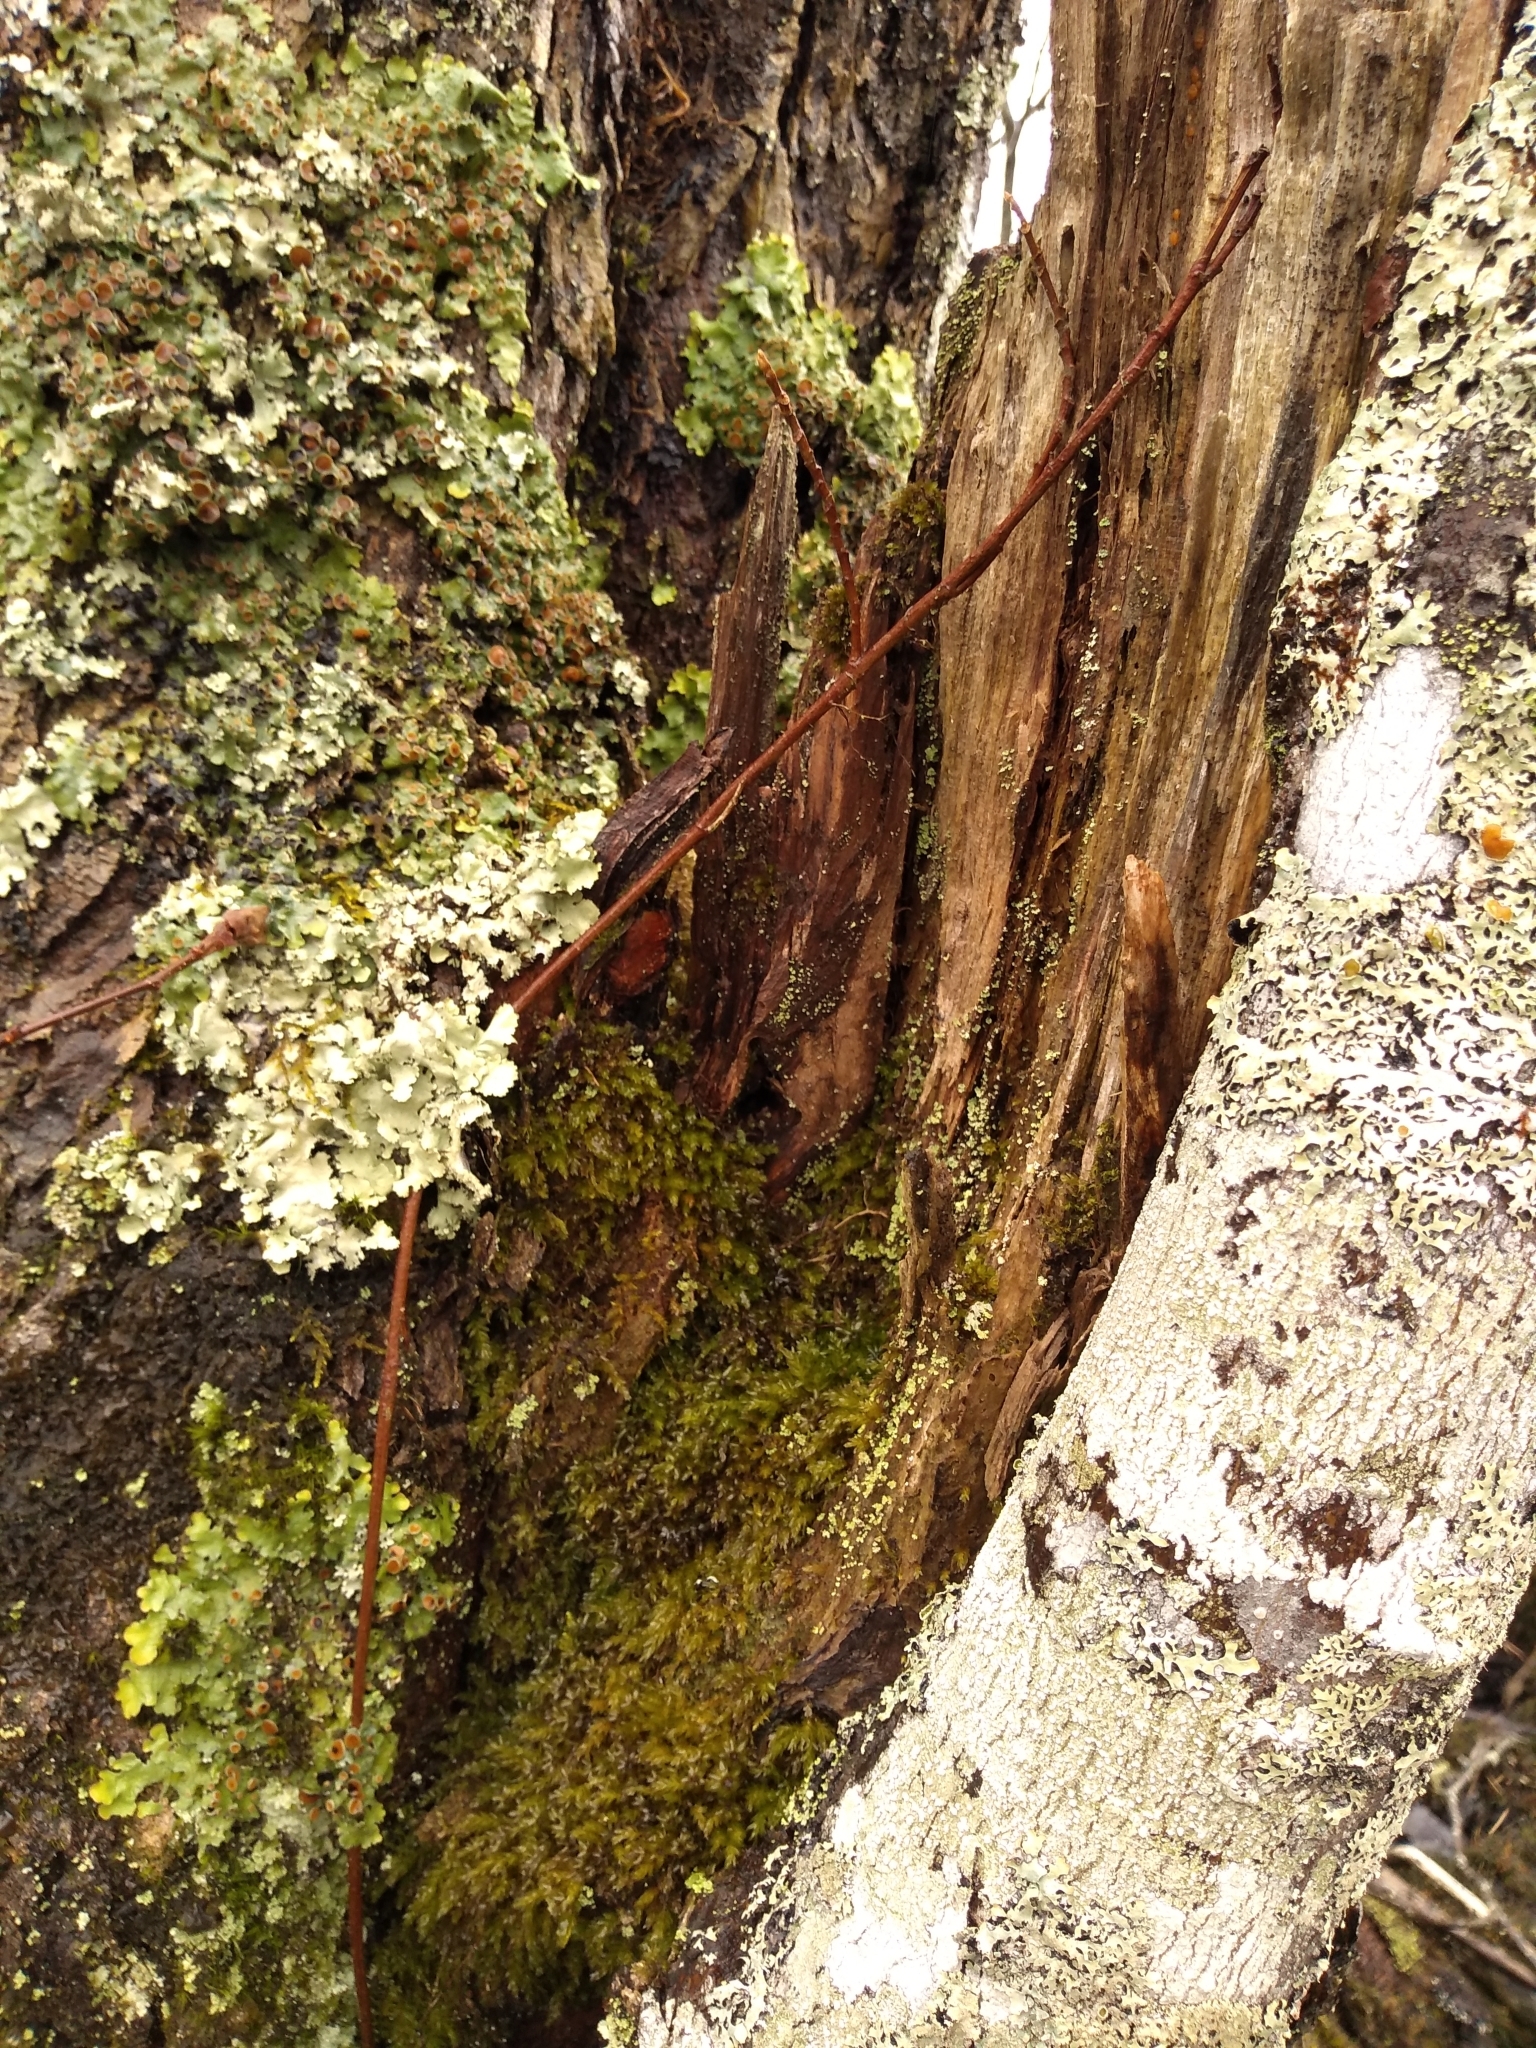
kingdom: Plantae
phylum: Tracheophyta
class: Magnoliopsida
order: Sapindales
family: Anacardiaceae
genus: Toxicodendron
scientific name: Toxicodendron radicans
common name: Poison ivy
